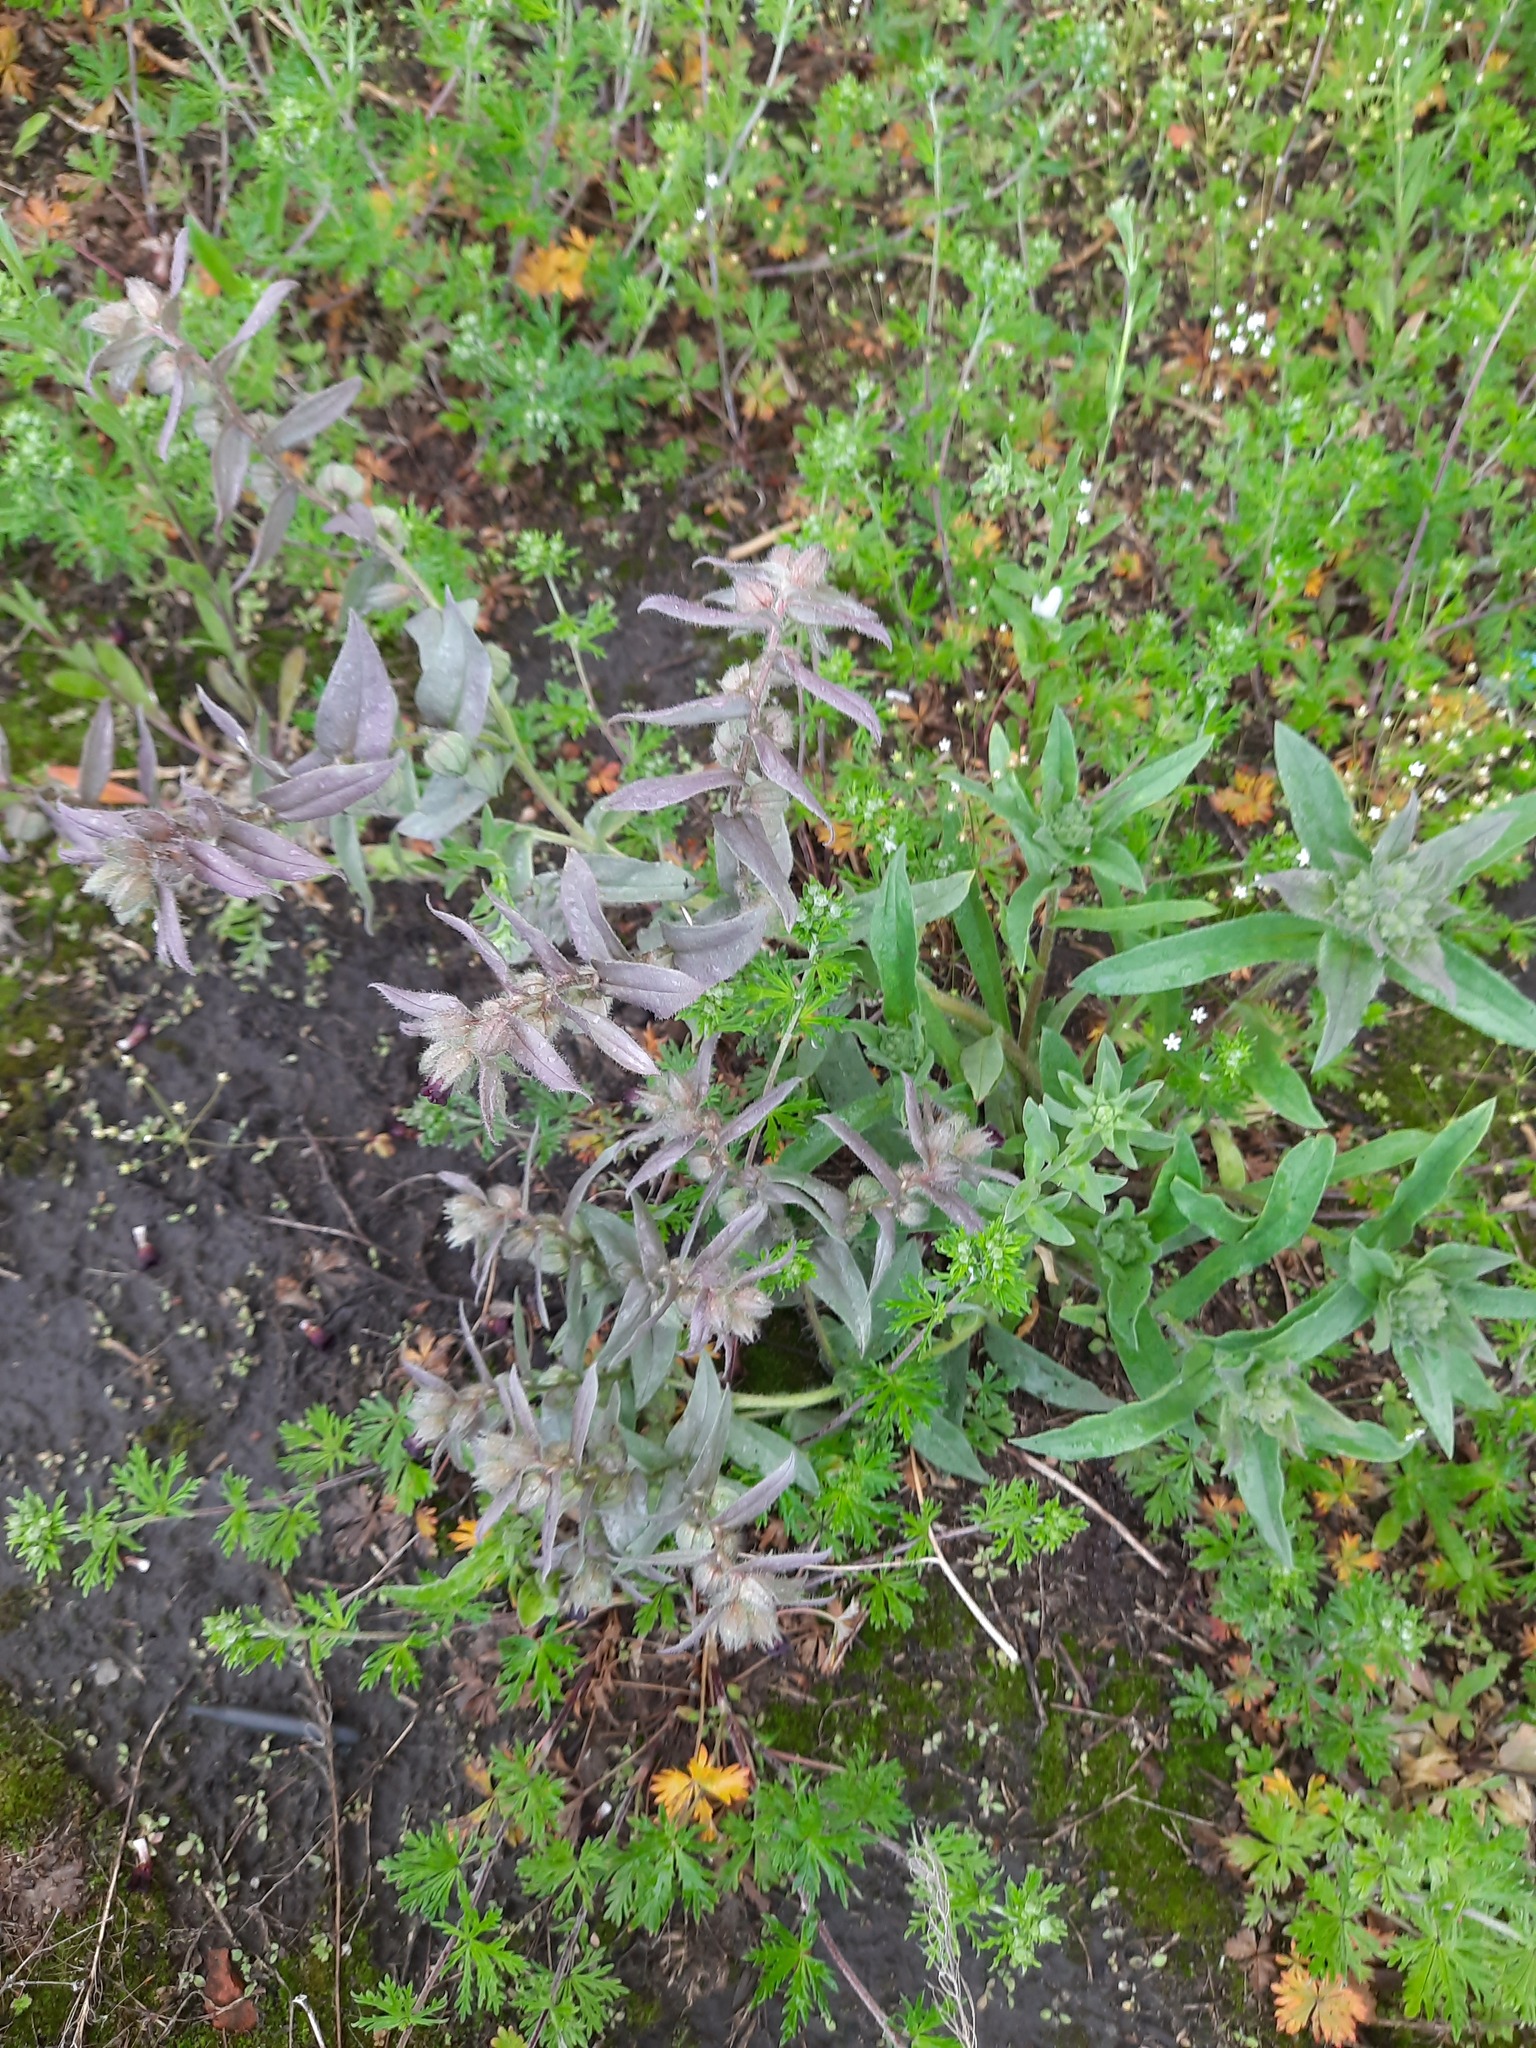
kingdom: Plantae
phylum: Tracheophyta
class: Magnoliopsida
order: Boraginales
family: Boraginaceae
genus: Nonea
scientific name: Nonea pulla
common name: Brown nonea
